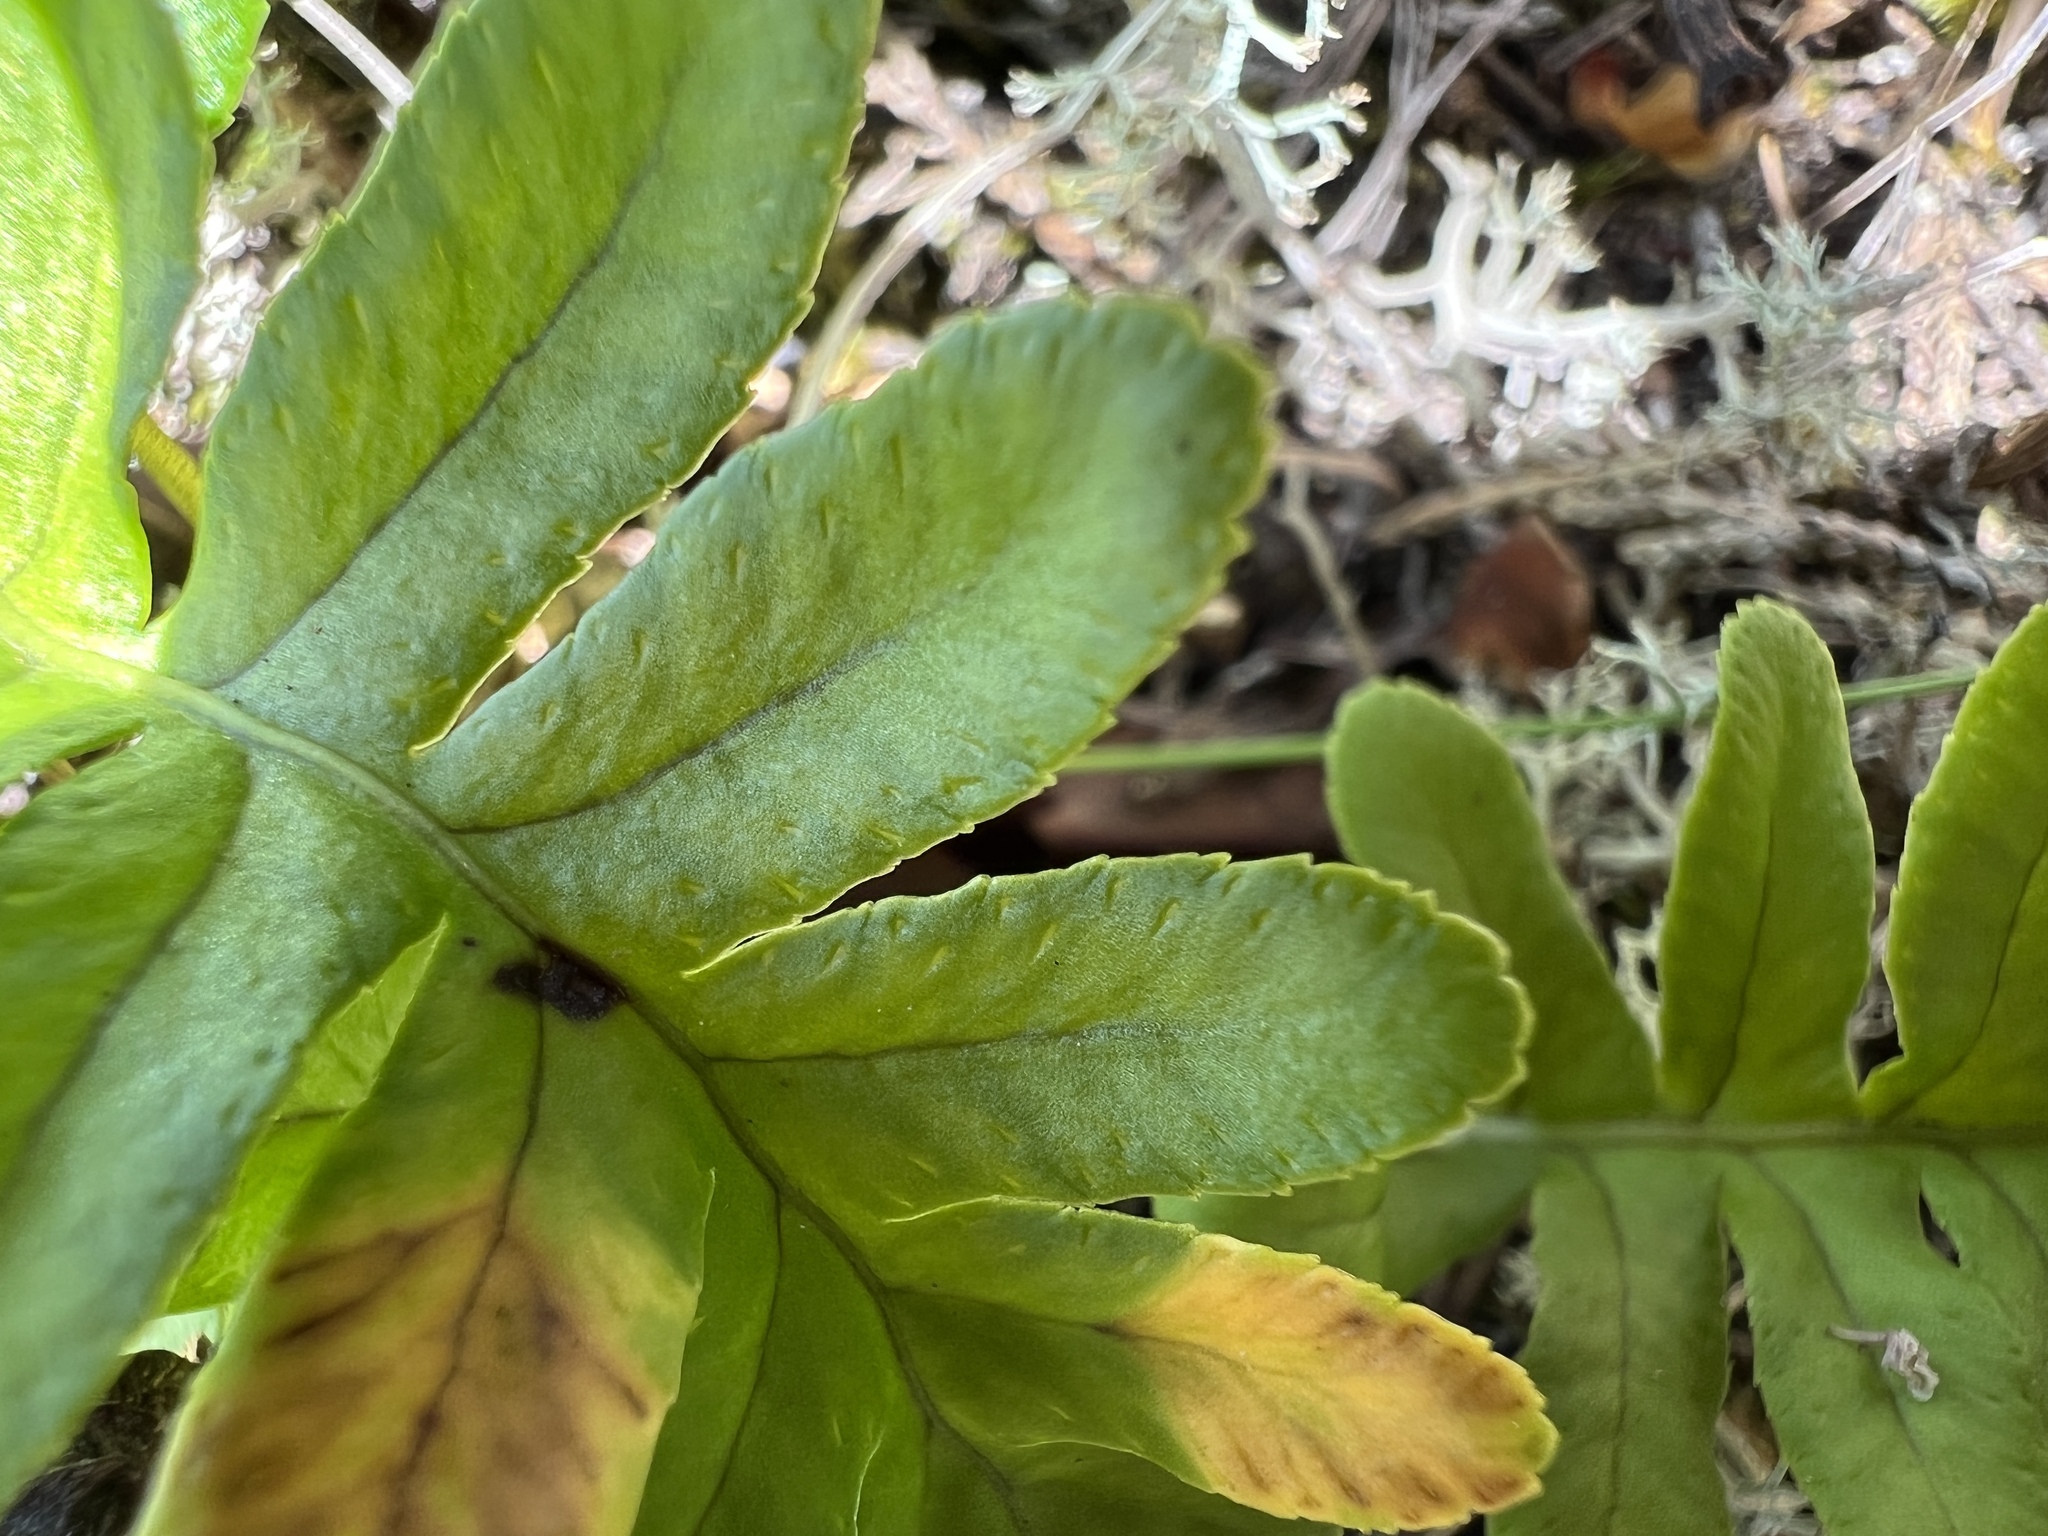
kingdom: Plantae
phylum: Tracheophyta
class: Polypodiopsida
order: Polypodiales
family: Polypodiaceae
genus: Polypodium
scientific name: Polypodium glycyrrhiza
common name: Licorice fern
